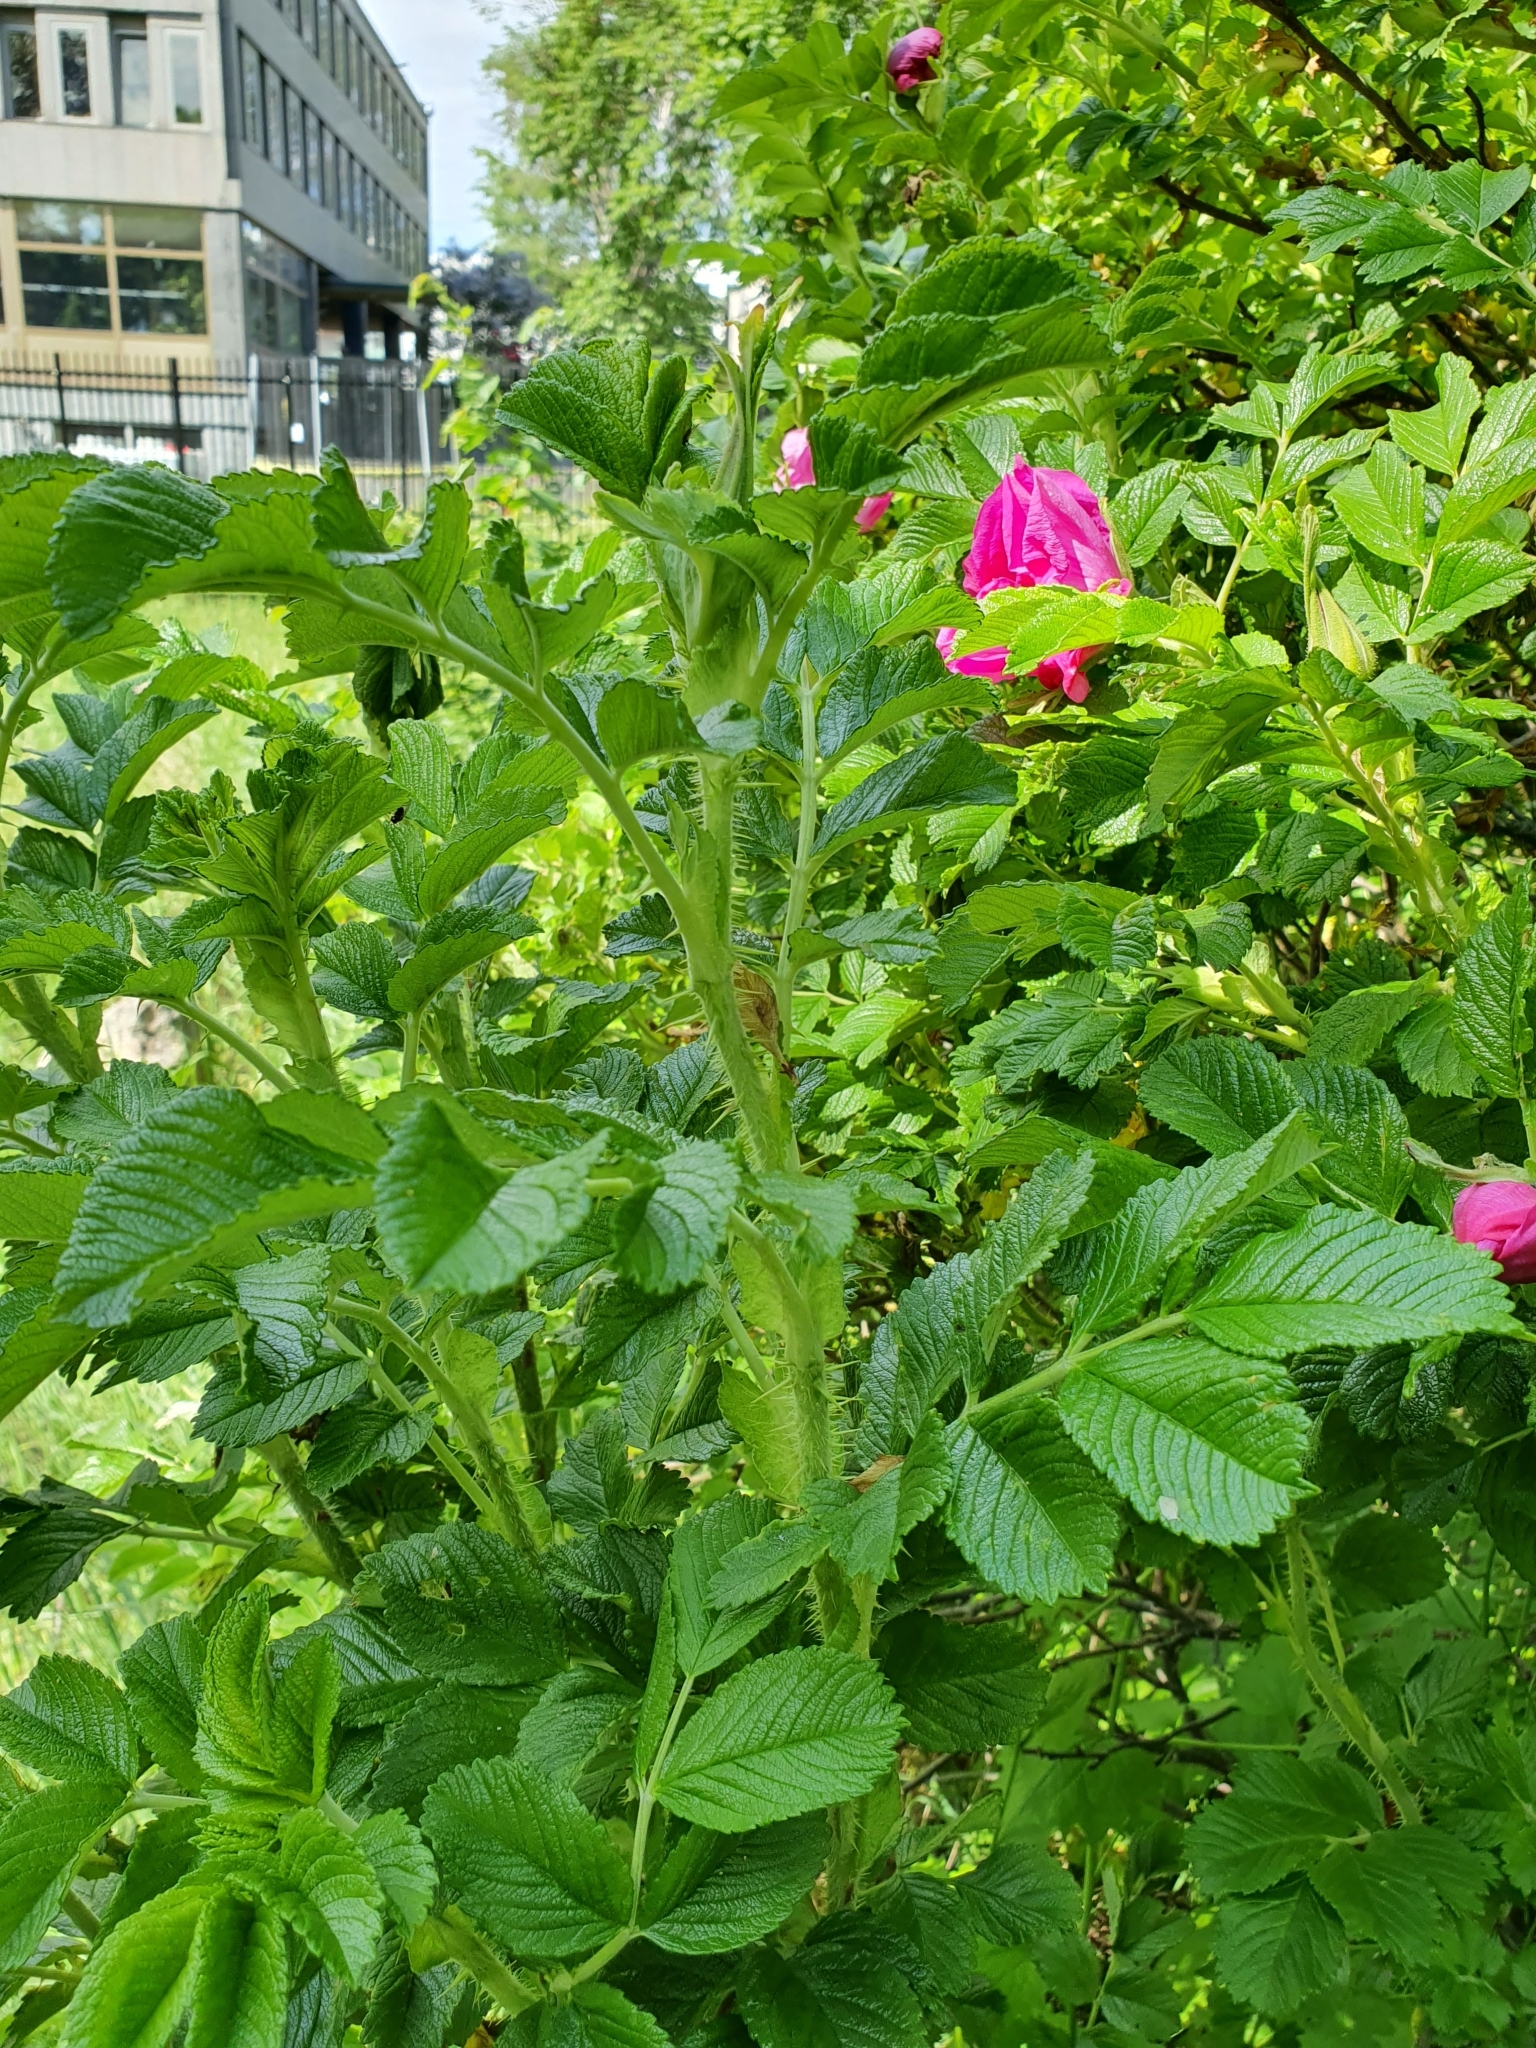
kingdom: Plantae
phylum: Tracheophyta
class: Magnoliopsida
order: Rosales
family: Rosaceae
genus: Rosa
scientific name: Rosa rugosa
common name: Japanese rose
